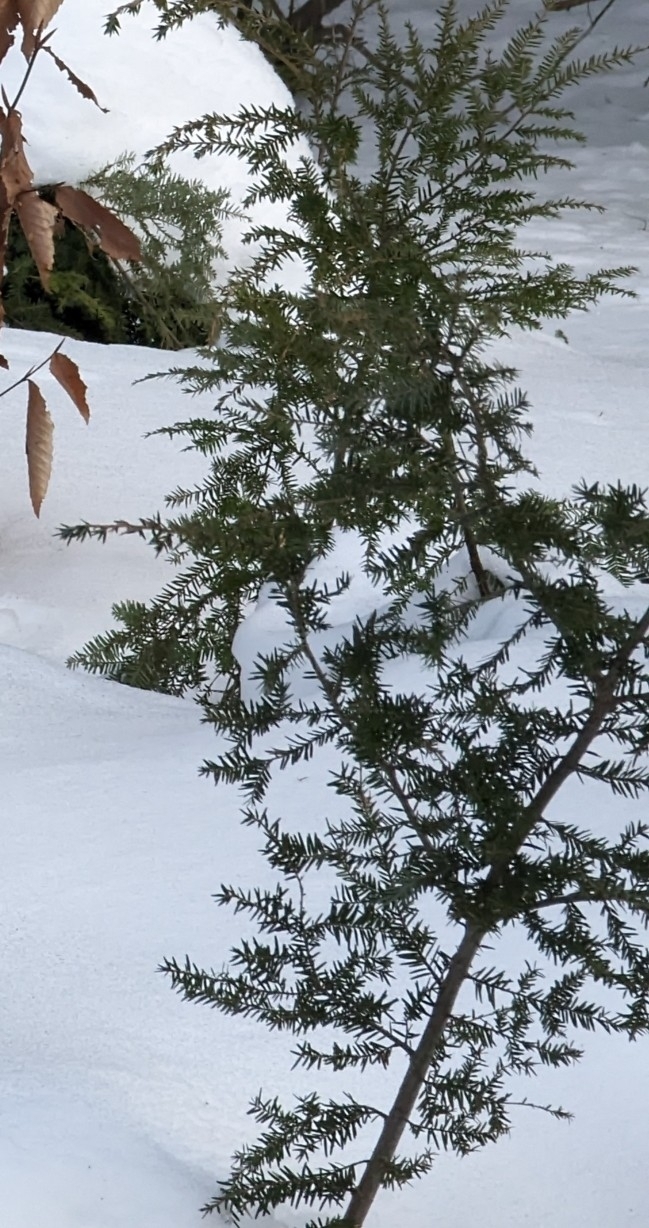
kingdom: Plantae
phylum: Tracheophyta
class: Pinopsida
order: Pinales
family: Pinaceae
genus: Tsuga
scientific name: Tsuga canadensis
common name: Eastern hemlock
